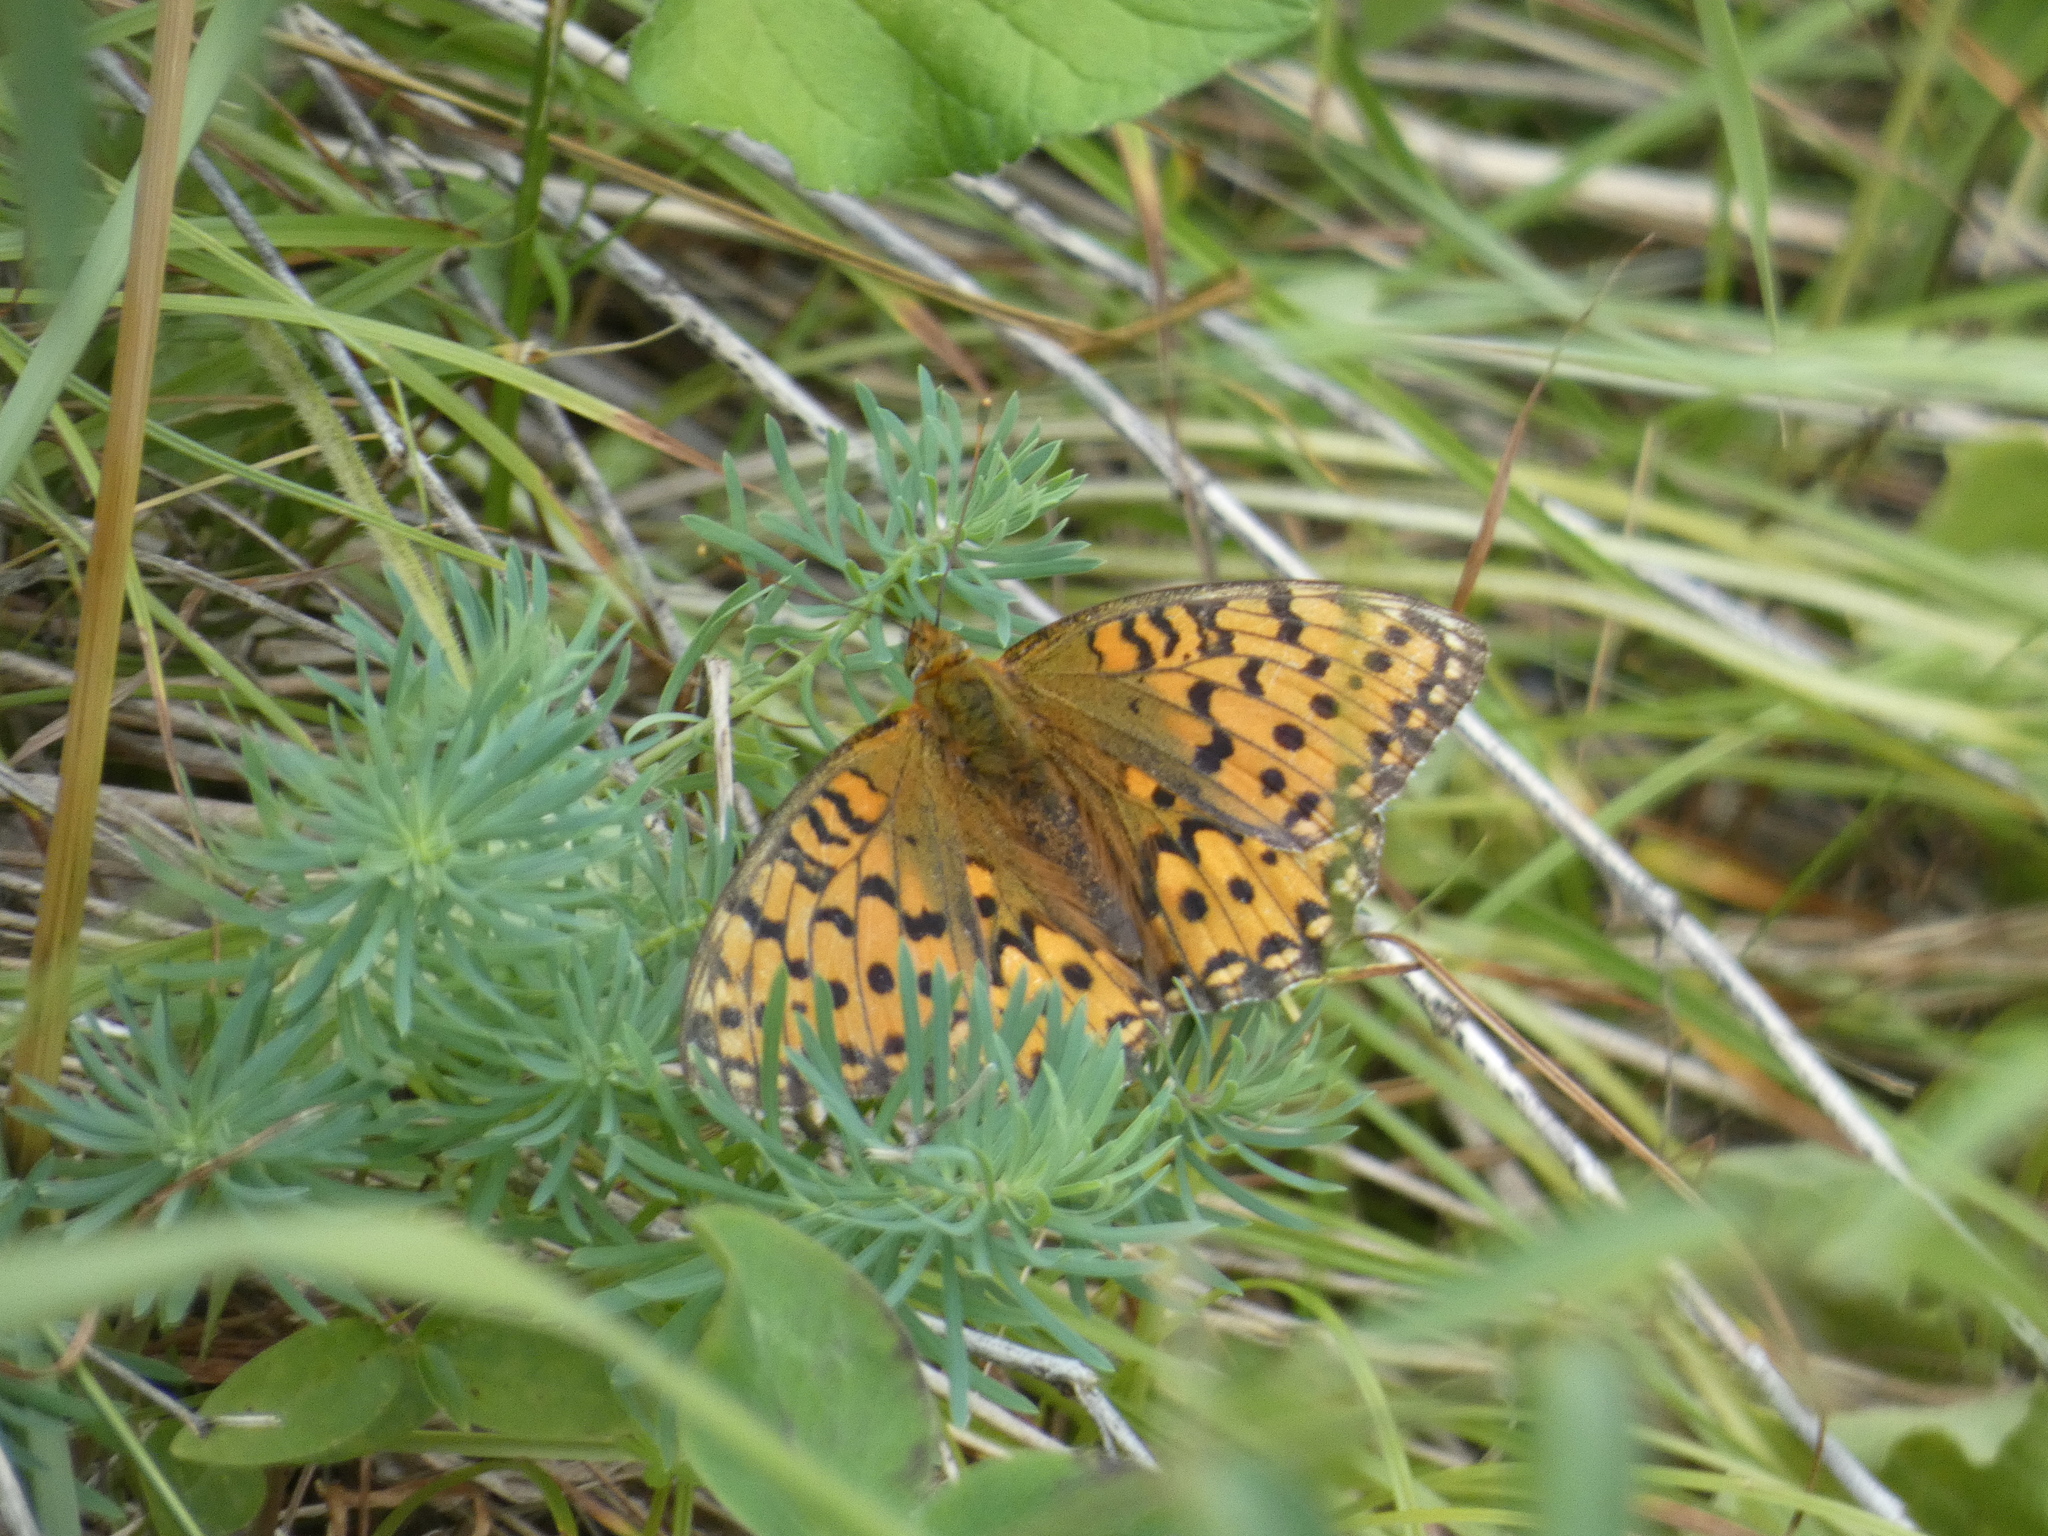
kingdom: Animalia
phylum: Arthropoda
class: Insecta
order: Lepidoptera
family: Nymphalidae
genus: Speyeria
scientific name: Speyeria aglaja
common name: Dark green fritillary
